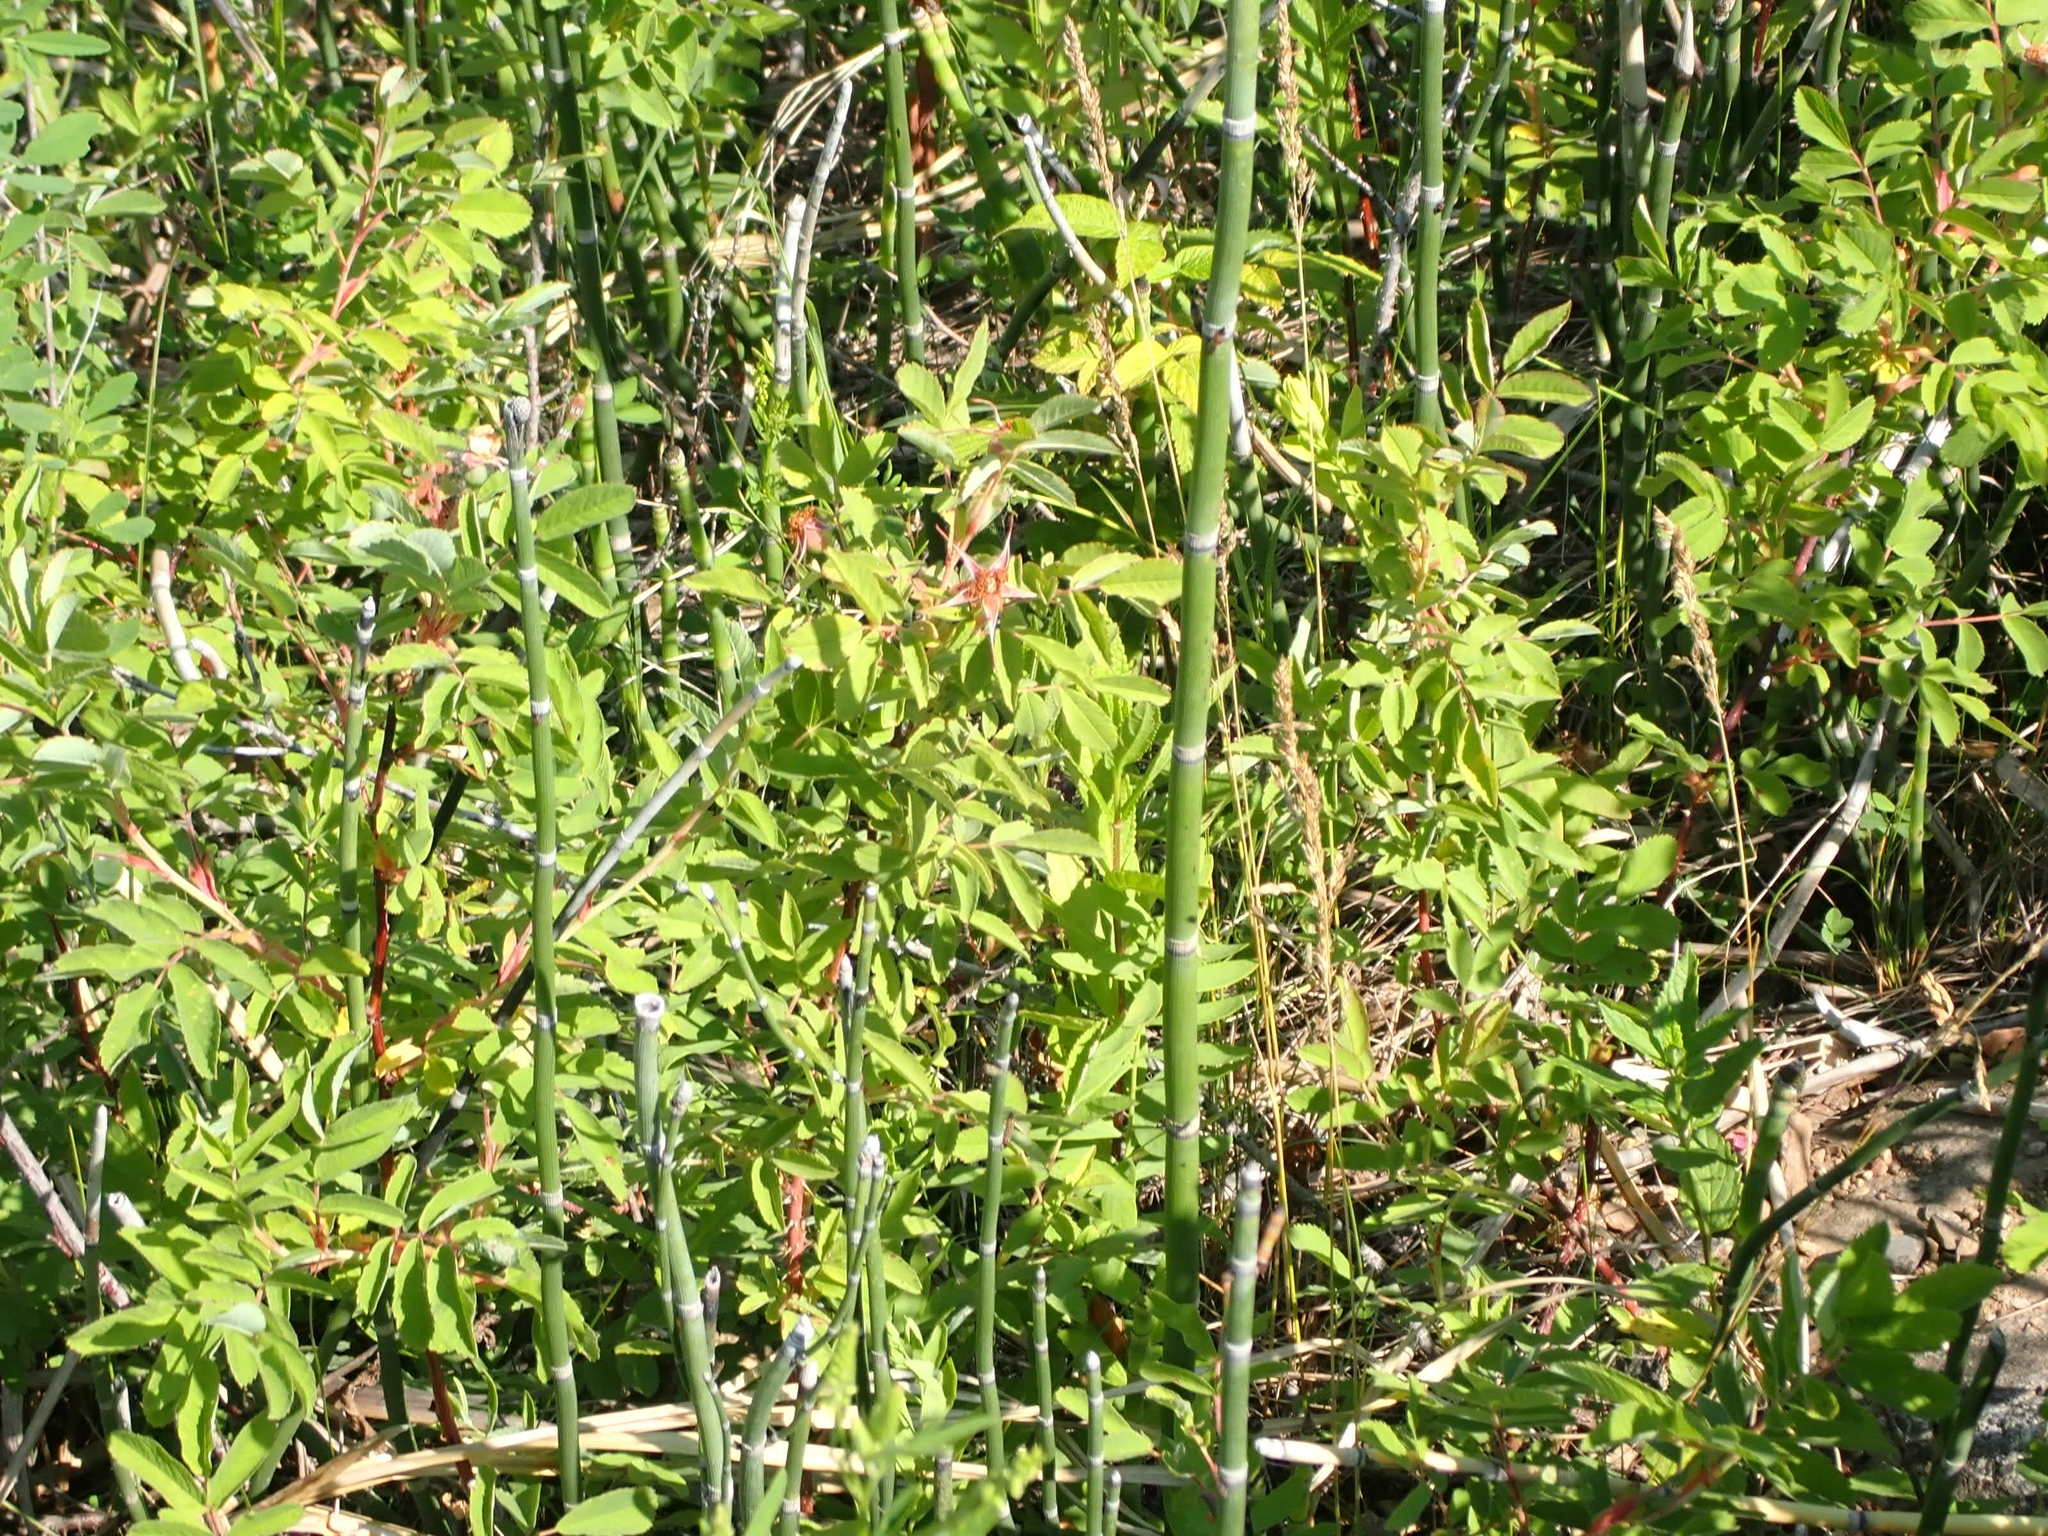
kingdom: Plantae
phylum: Tracheophyta
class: Polypodiopsida
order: Equisetales
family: Equisetaceae
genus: Equisetum
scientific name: Equisetum praealtum
